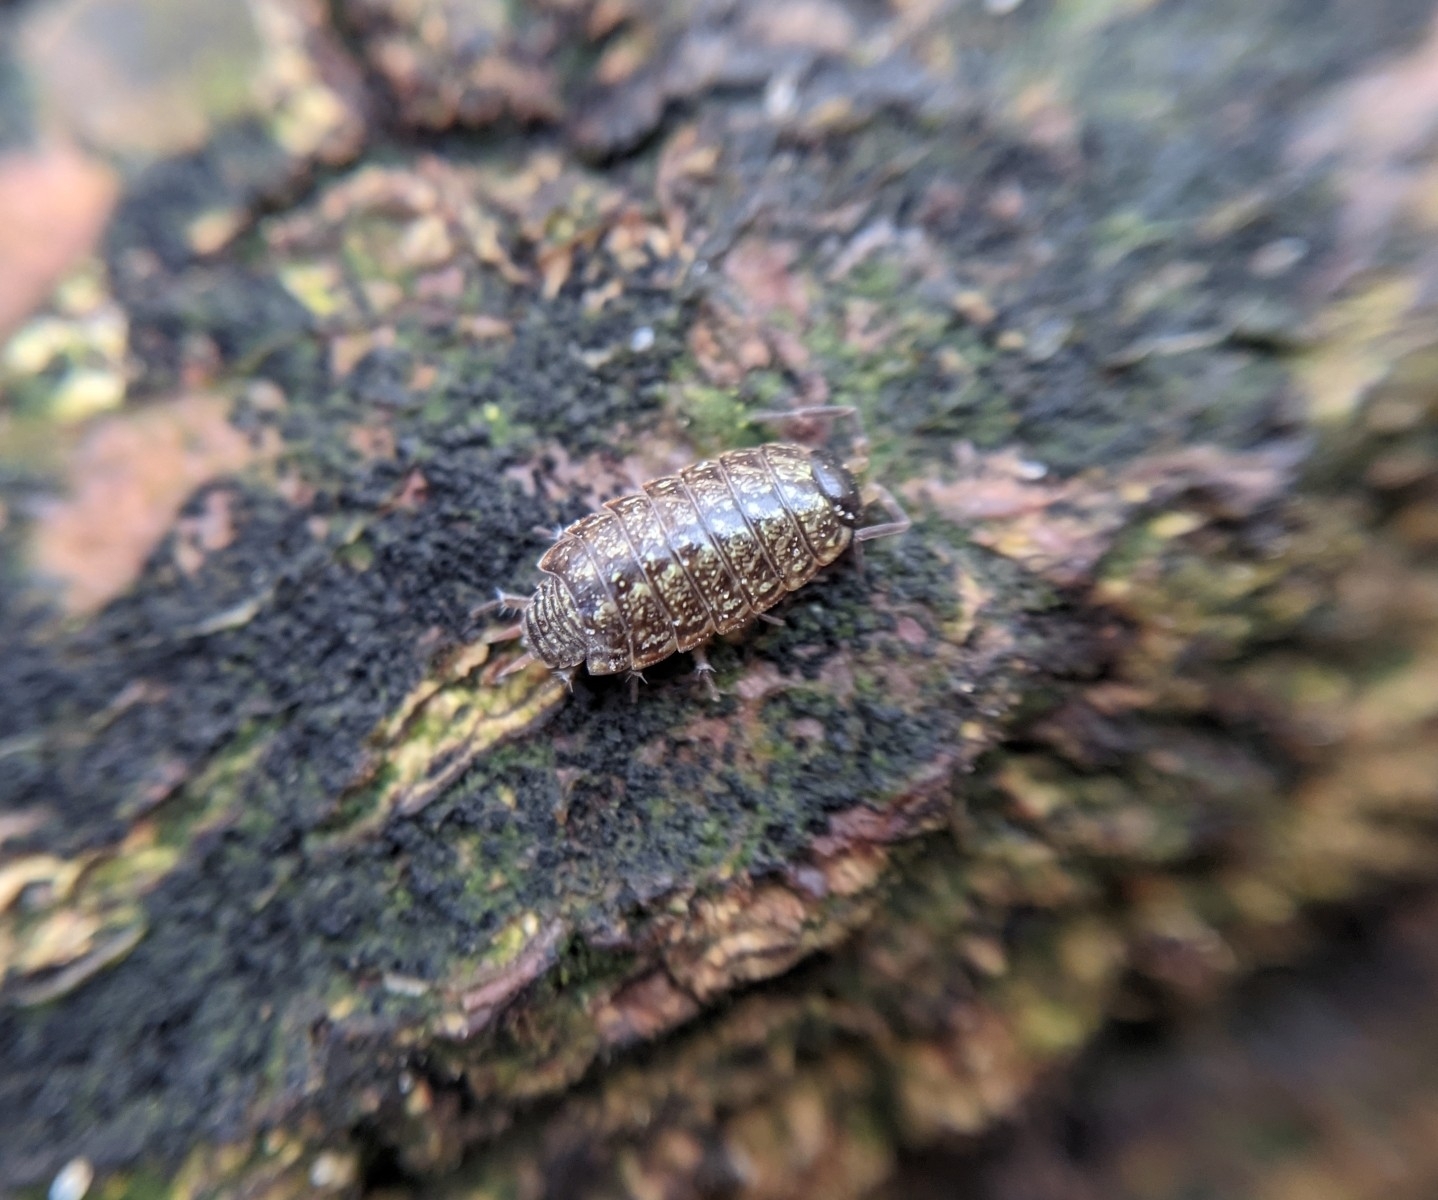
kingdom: Animalia
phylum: Arthropoda
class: Malacostraca
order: Isopoda
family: Philosciidae
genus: Philoscia
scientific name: Philoscia muscorum
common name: Common striped woodlouse
